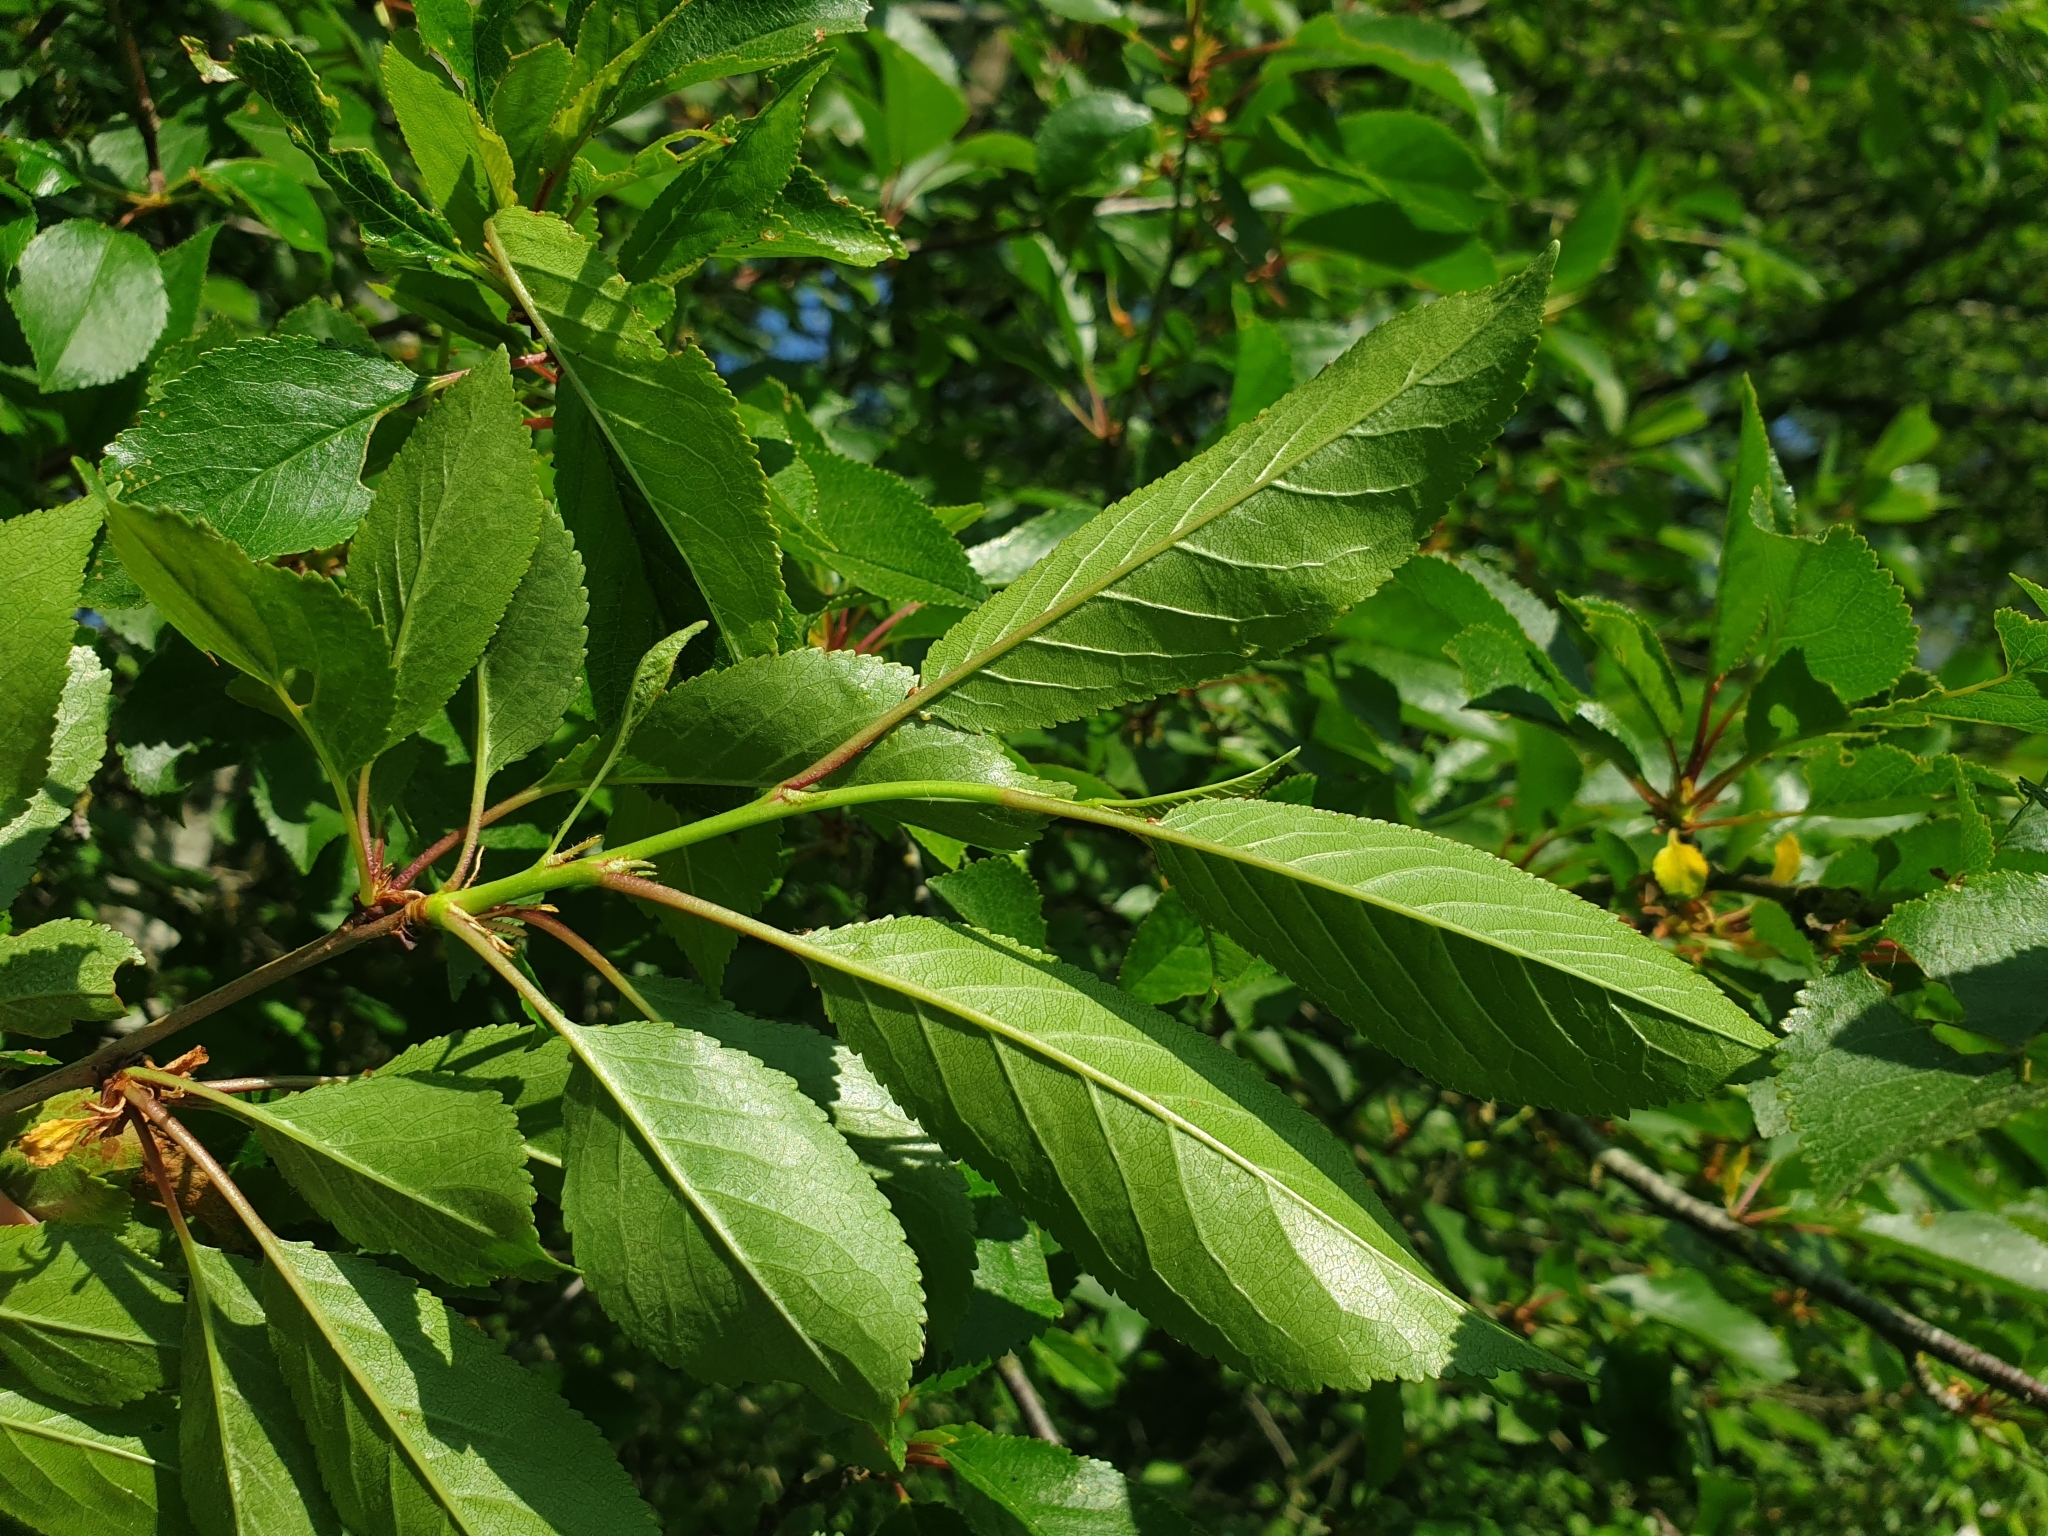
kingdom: Plantae
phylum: Tracheophyta
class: Magnoliopsida
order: Rosales
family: Rosaceae
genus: Prunus
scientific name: Prunus cerasus
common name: Morello cherry
